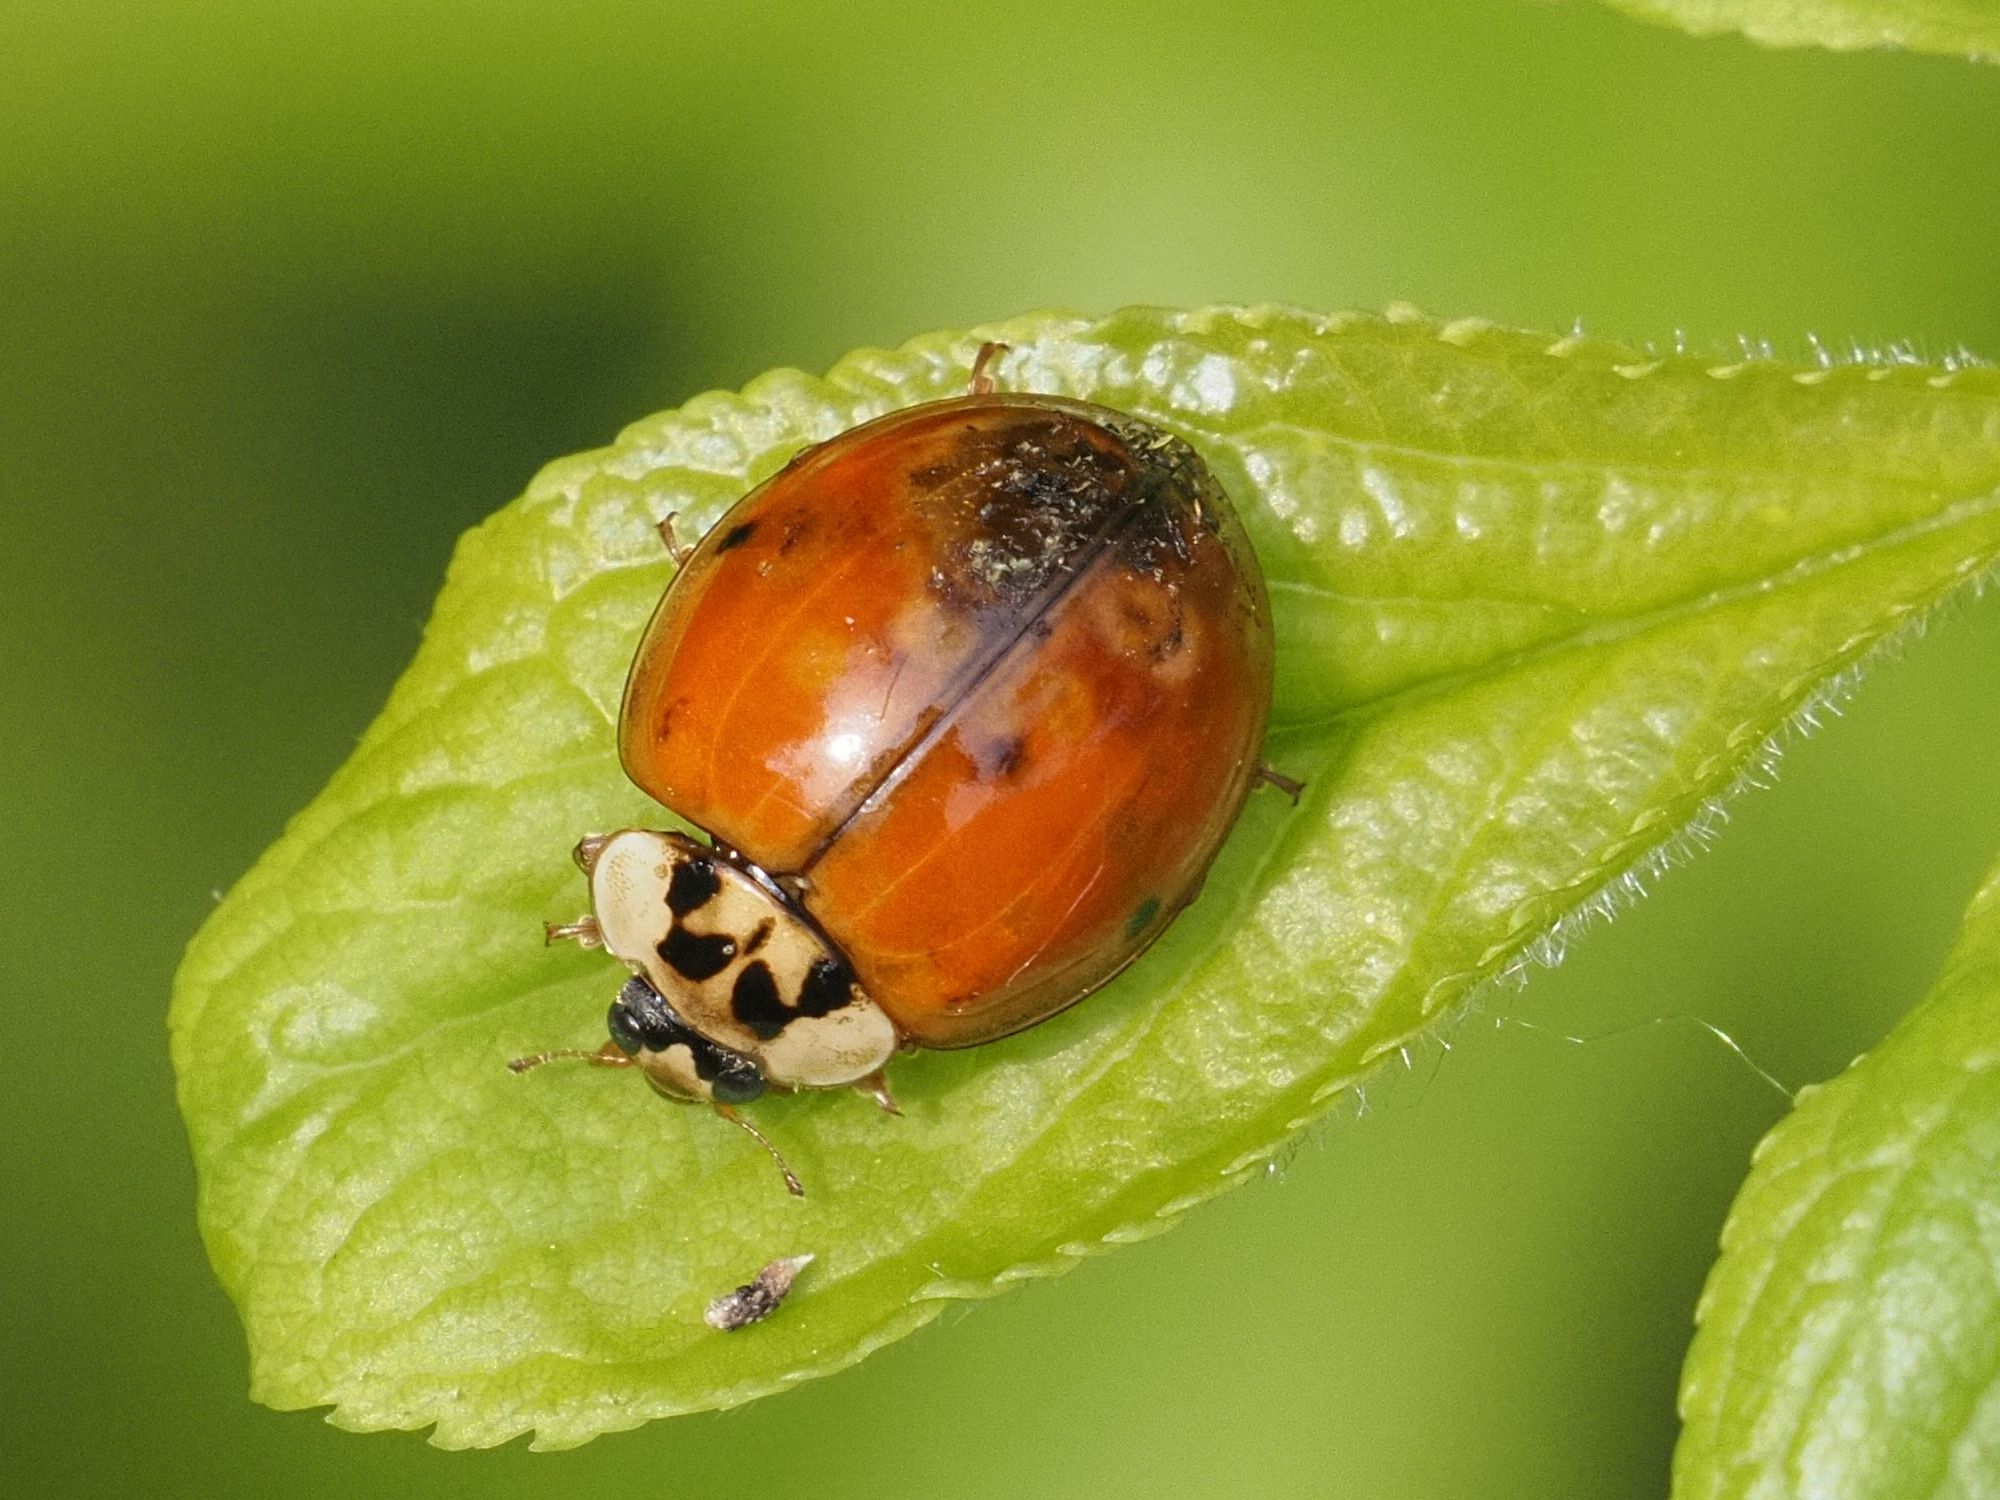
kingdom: Animalia
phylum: Arthropoda
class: Insecta
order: Coleoptera
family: Coccinellidae
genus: Harmonia
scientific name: Harmonia axyridis
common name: Harlequin ladybird
